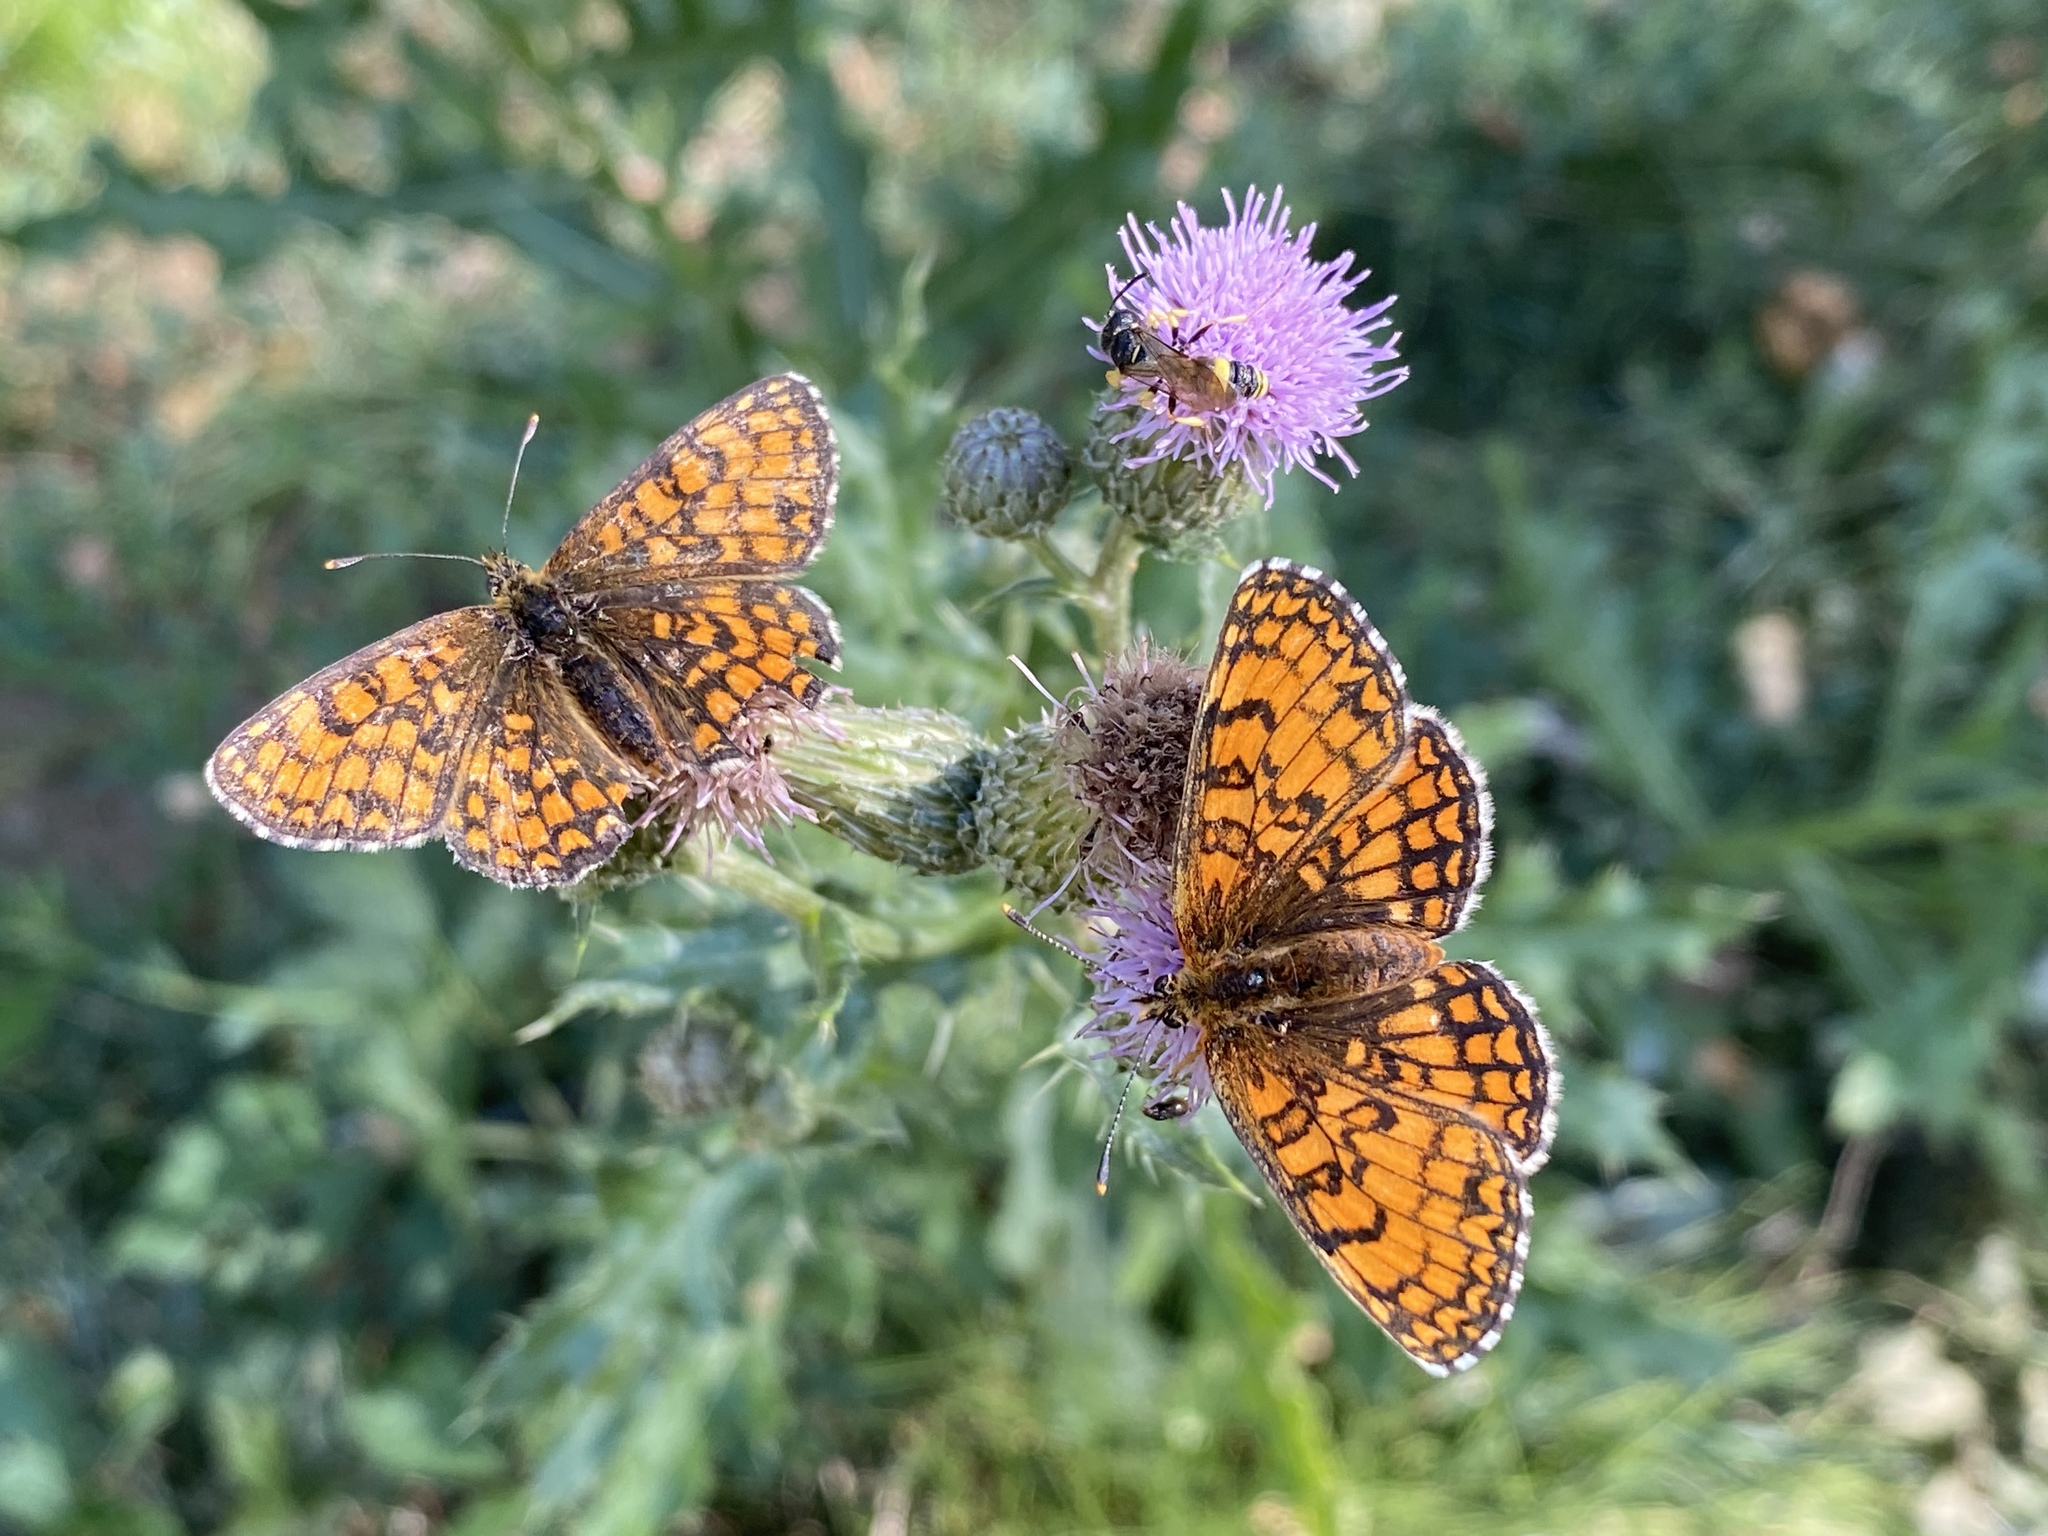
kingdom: Animalia
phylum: Arthropoda
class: Insecta
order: Lepidoptera
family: Nymphalidae
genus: Melitaea
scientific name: Melitaea athalia
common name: Heath fritillary
